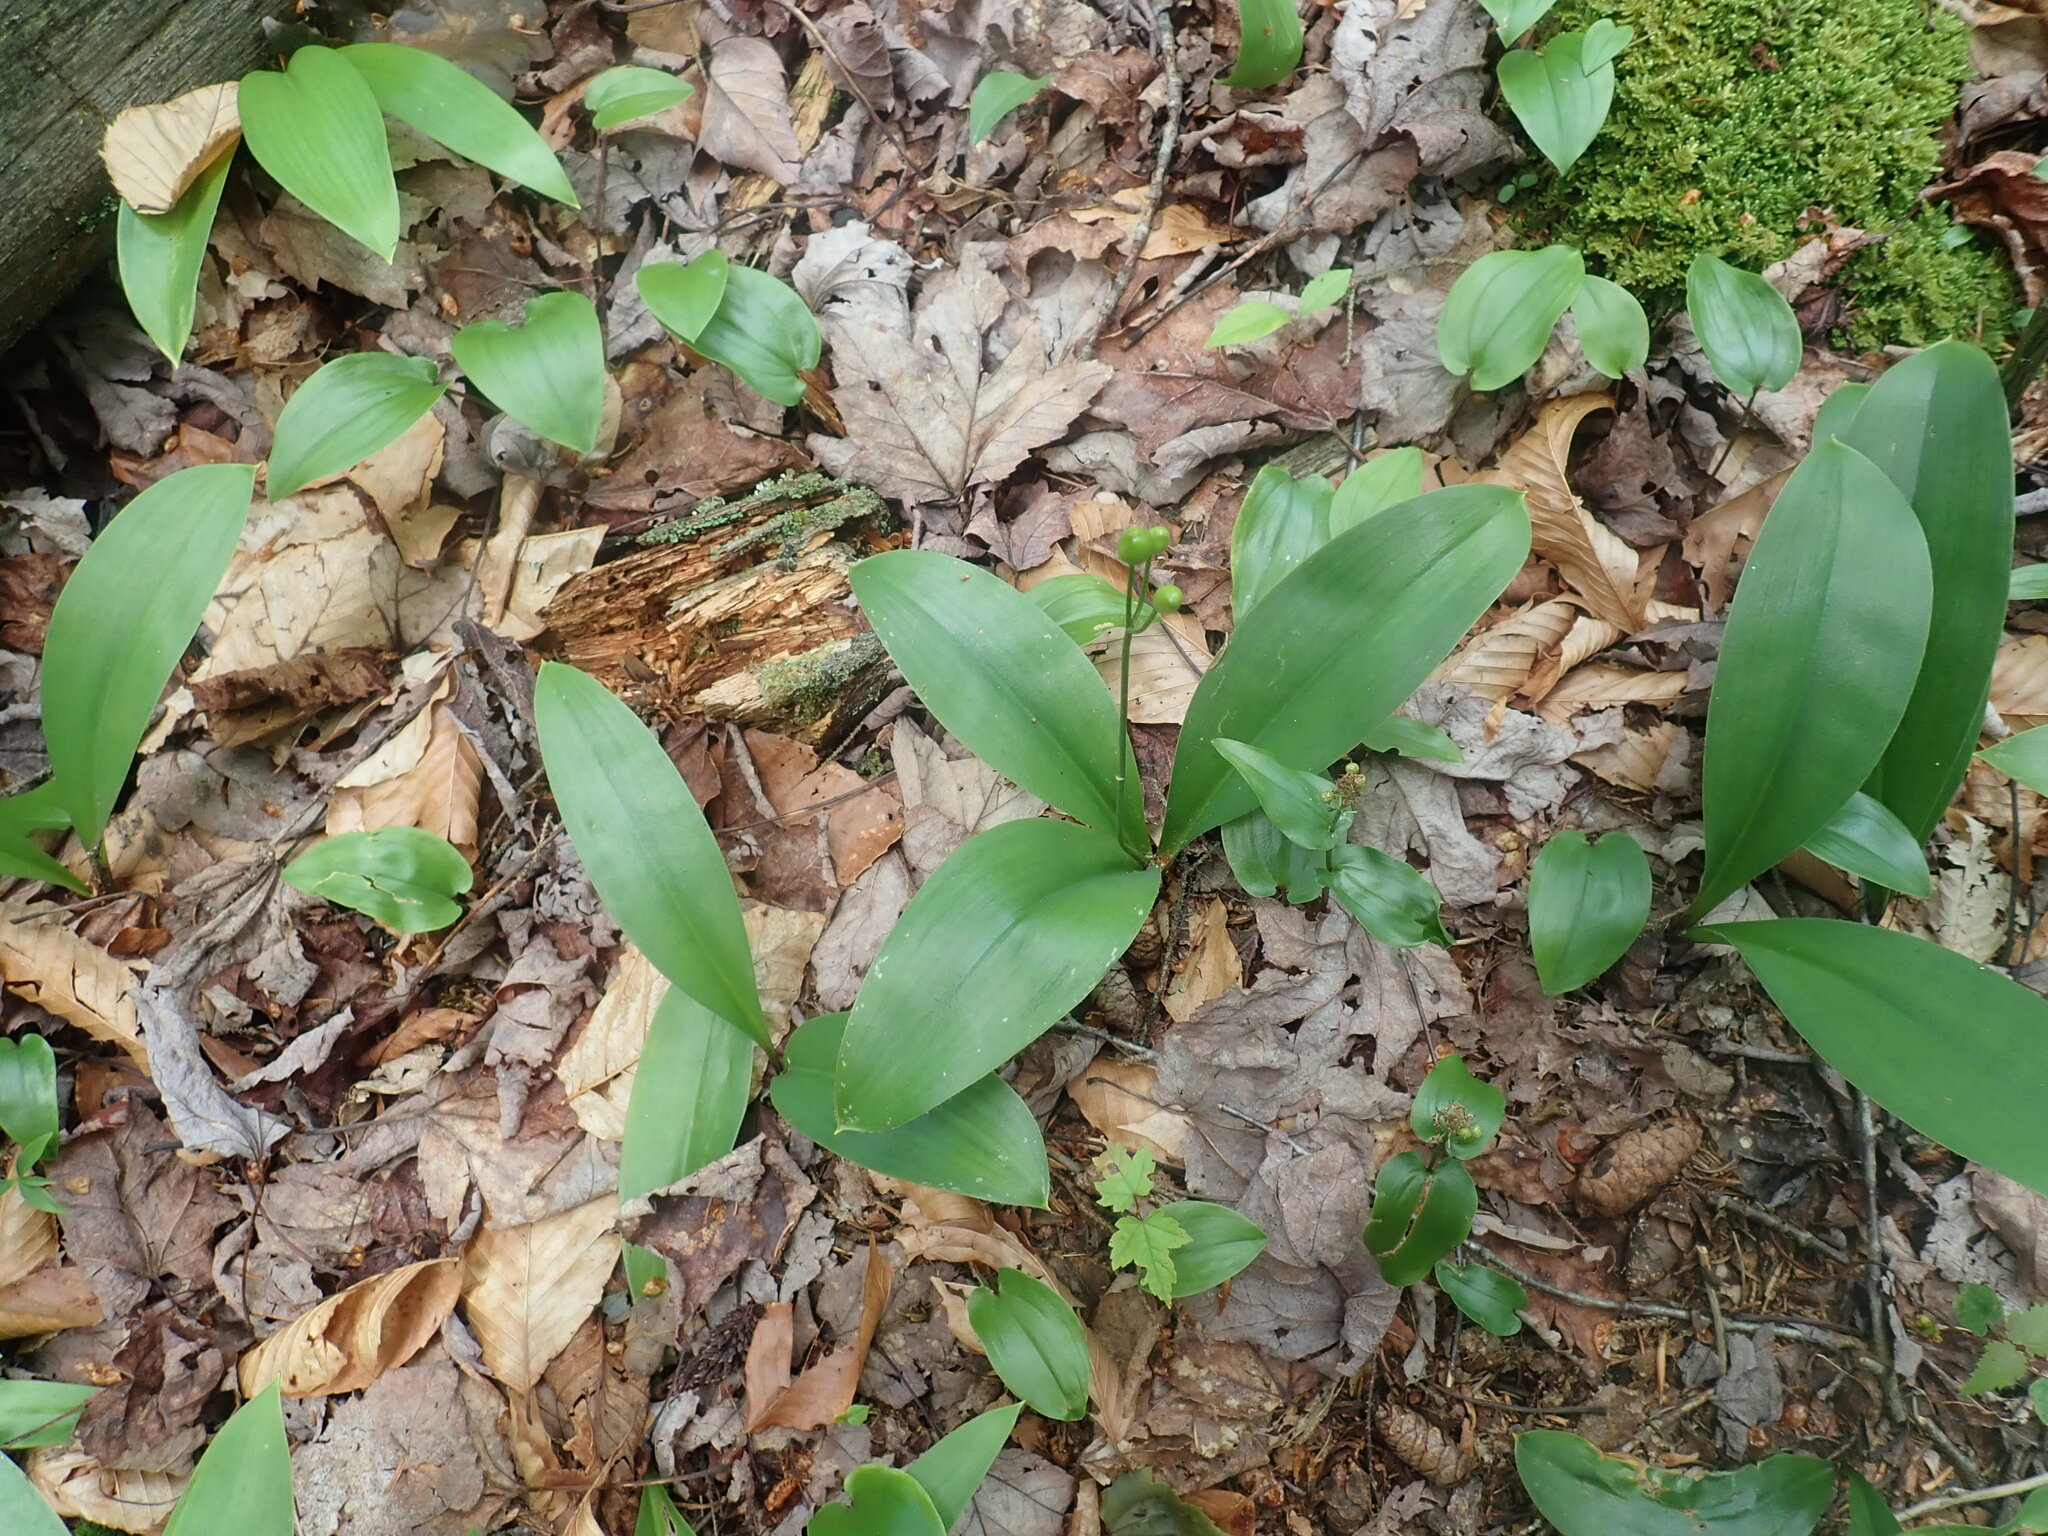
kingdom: Plantae
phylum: Tracheophyta
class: Liliopsida
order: Liliales
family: Liliaceae
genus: Clintonia
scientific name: Clintonia borealis
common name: Yellow clintonia
